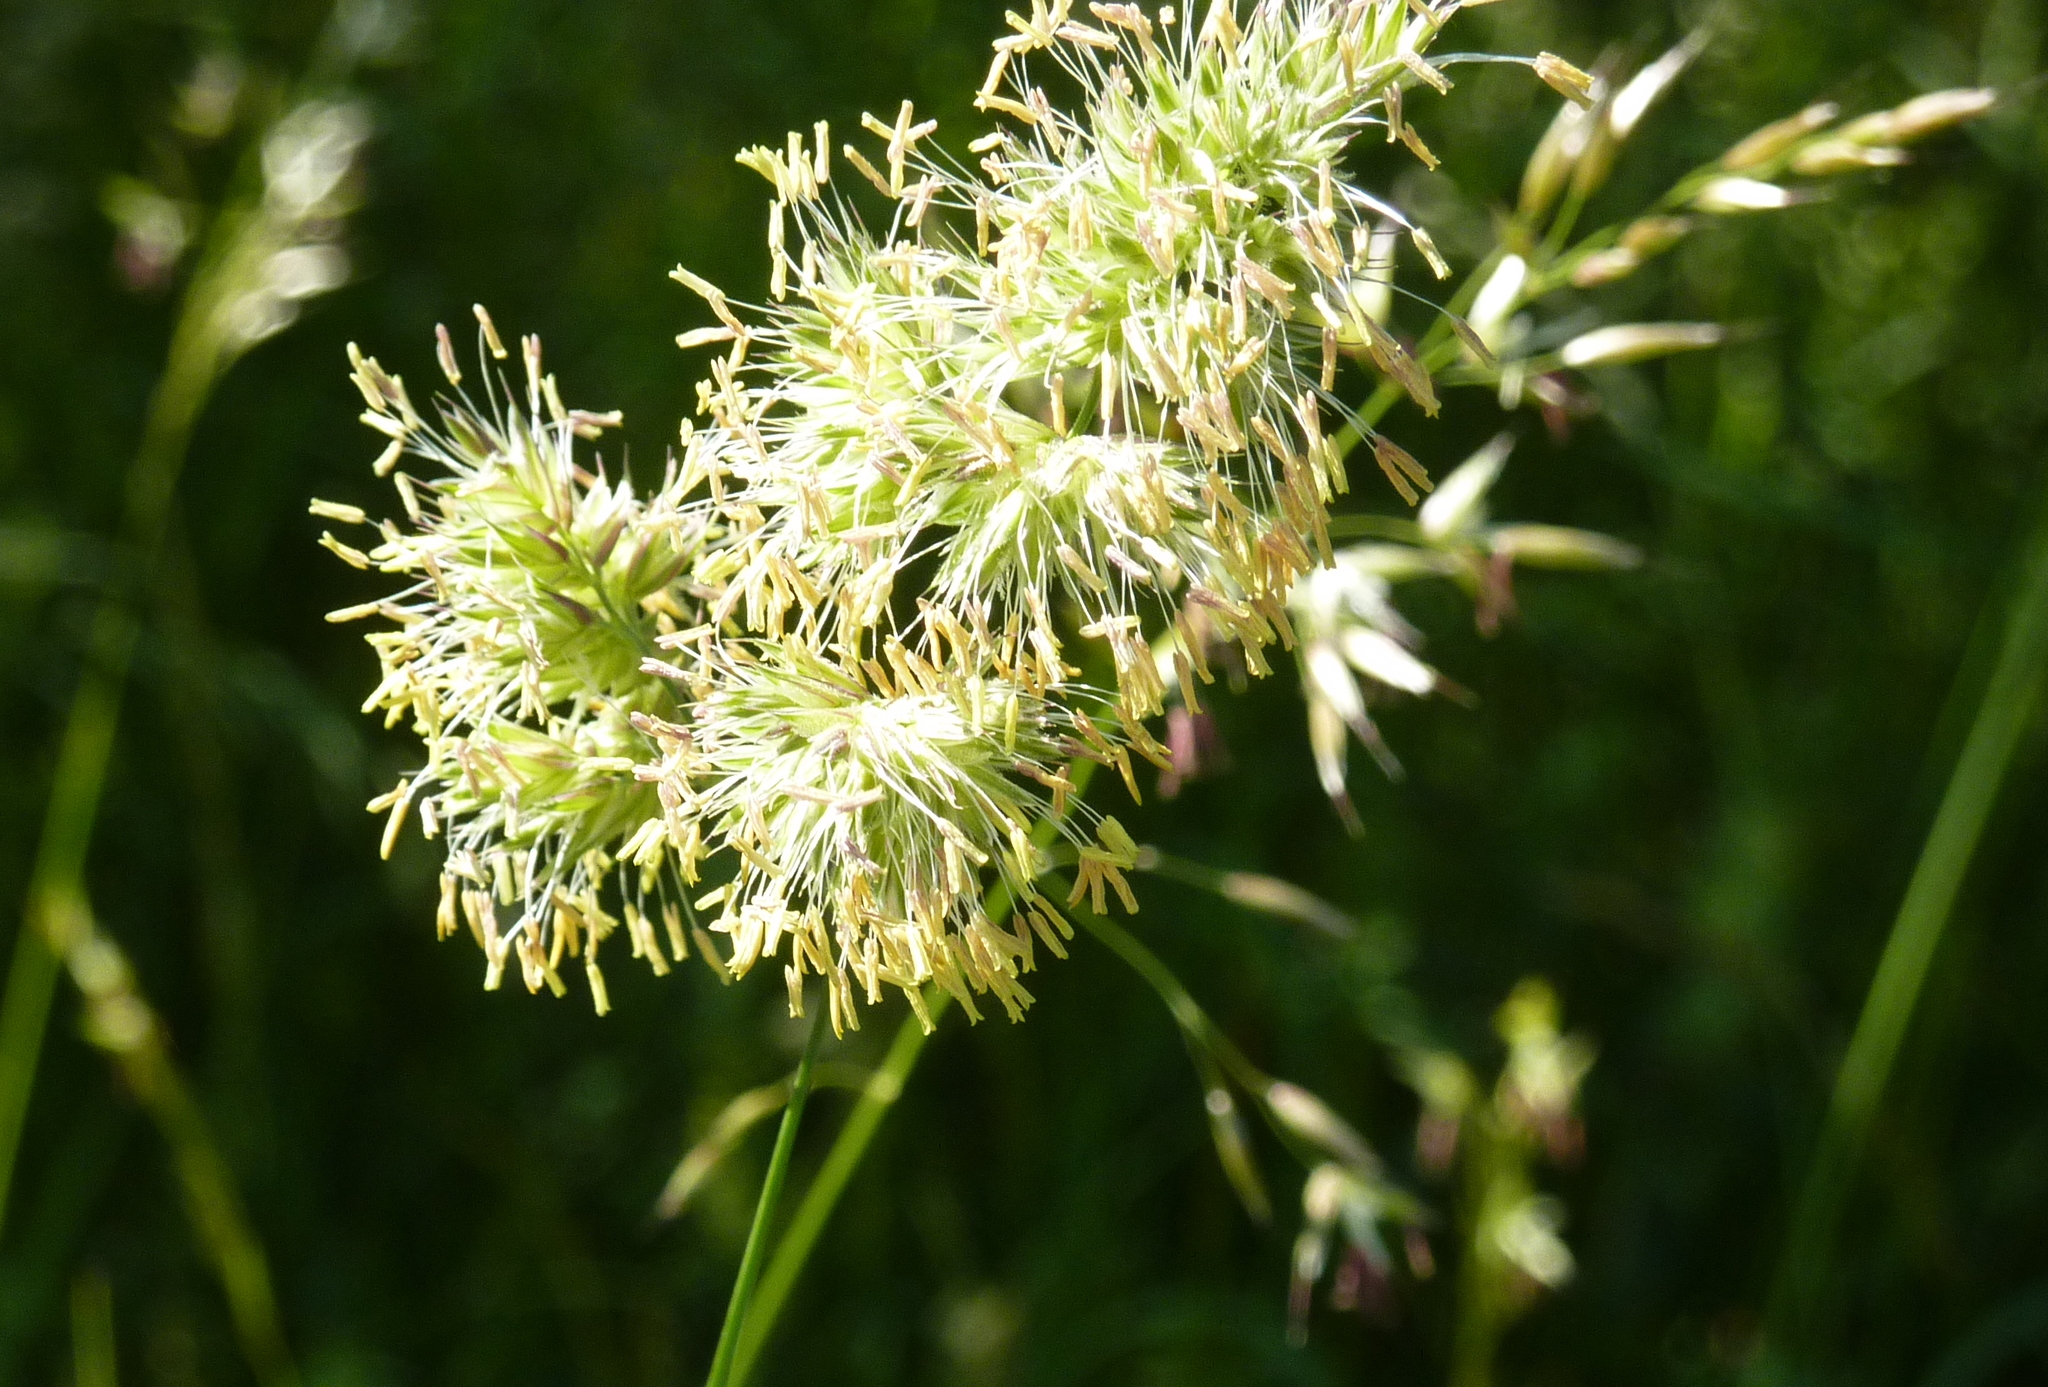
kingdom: Plantae
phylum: Tracheophyta
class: Liliopsida
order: Poales
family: Poaceae
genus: Dactylis
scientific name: Dactylis glomerata
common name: Orchardgrass
